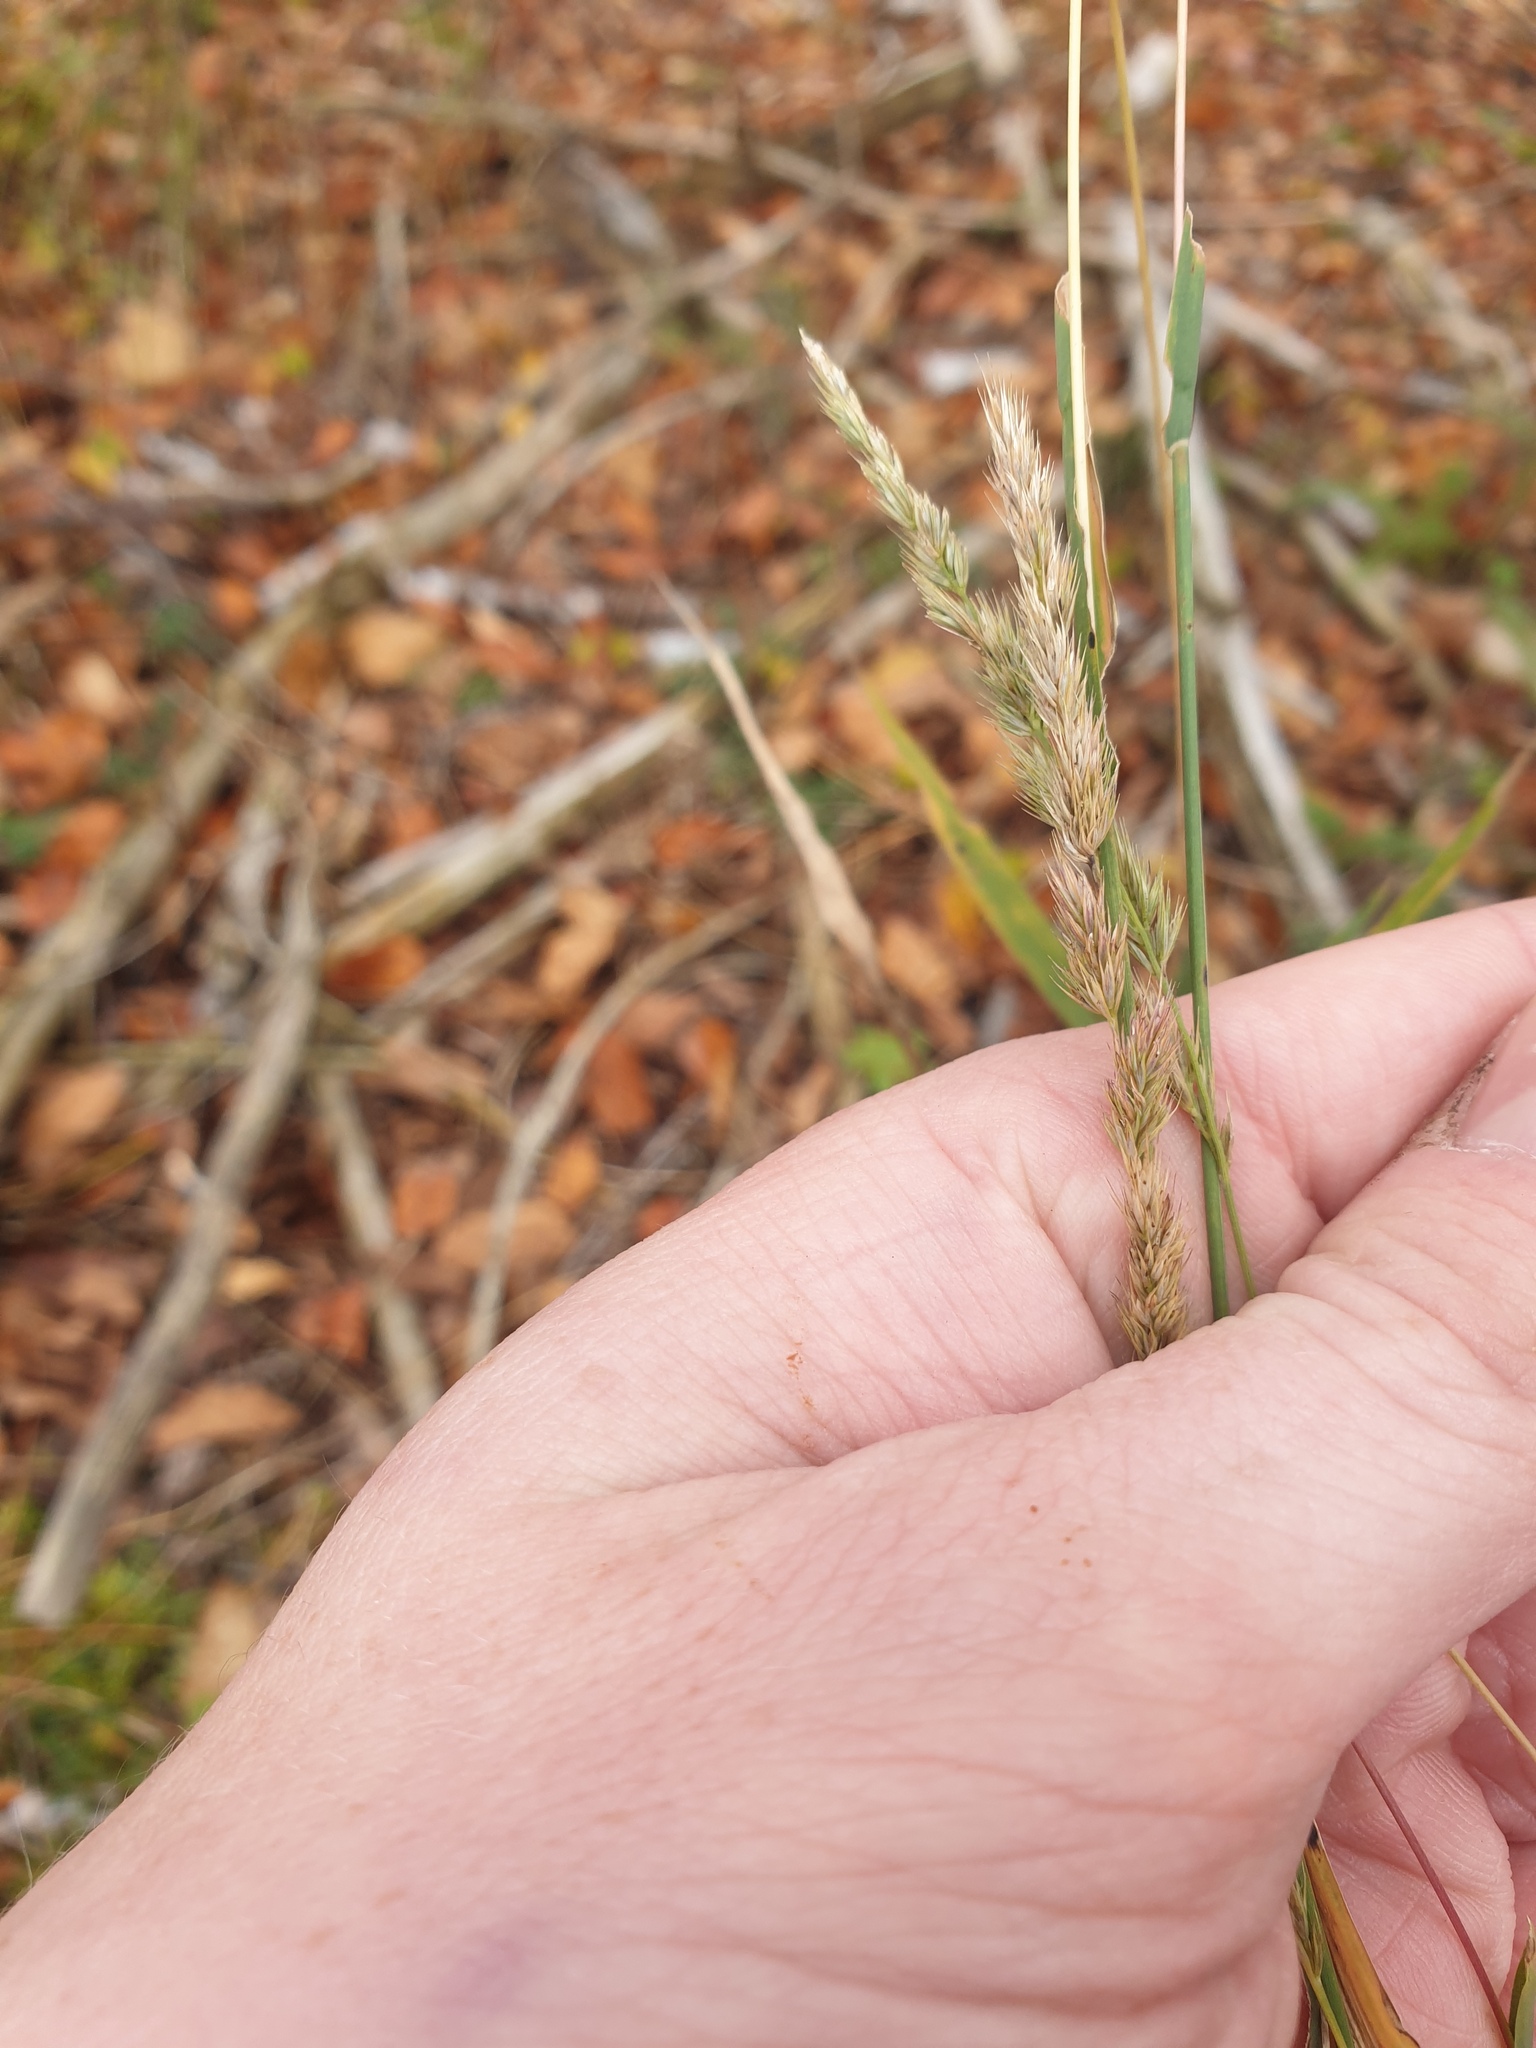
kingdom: Plantae
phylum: Tracheophyta
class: Liliopsida
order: Poales
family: Poaceae
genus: Muhlenbergia
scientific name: Muhlenbergia glomerata
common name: Bog muhly
